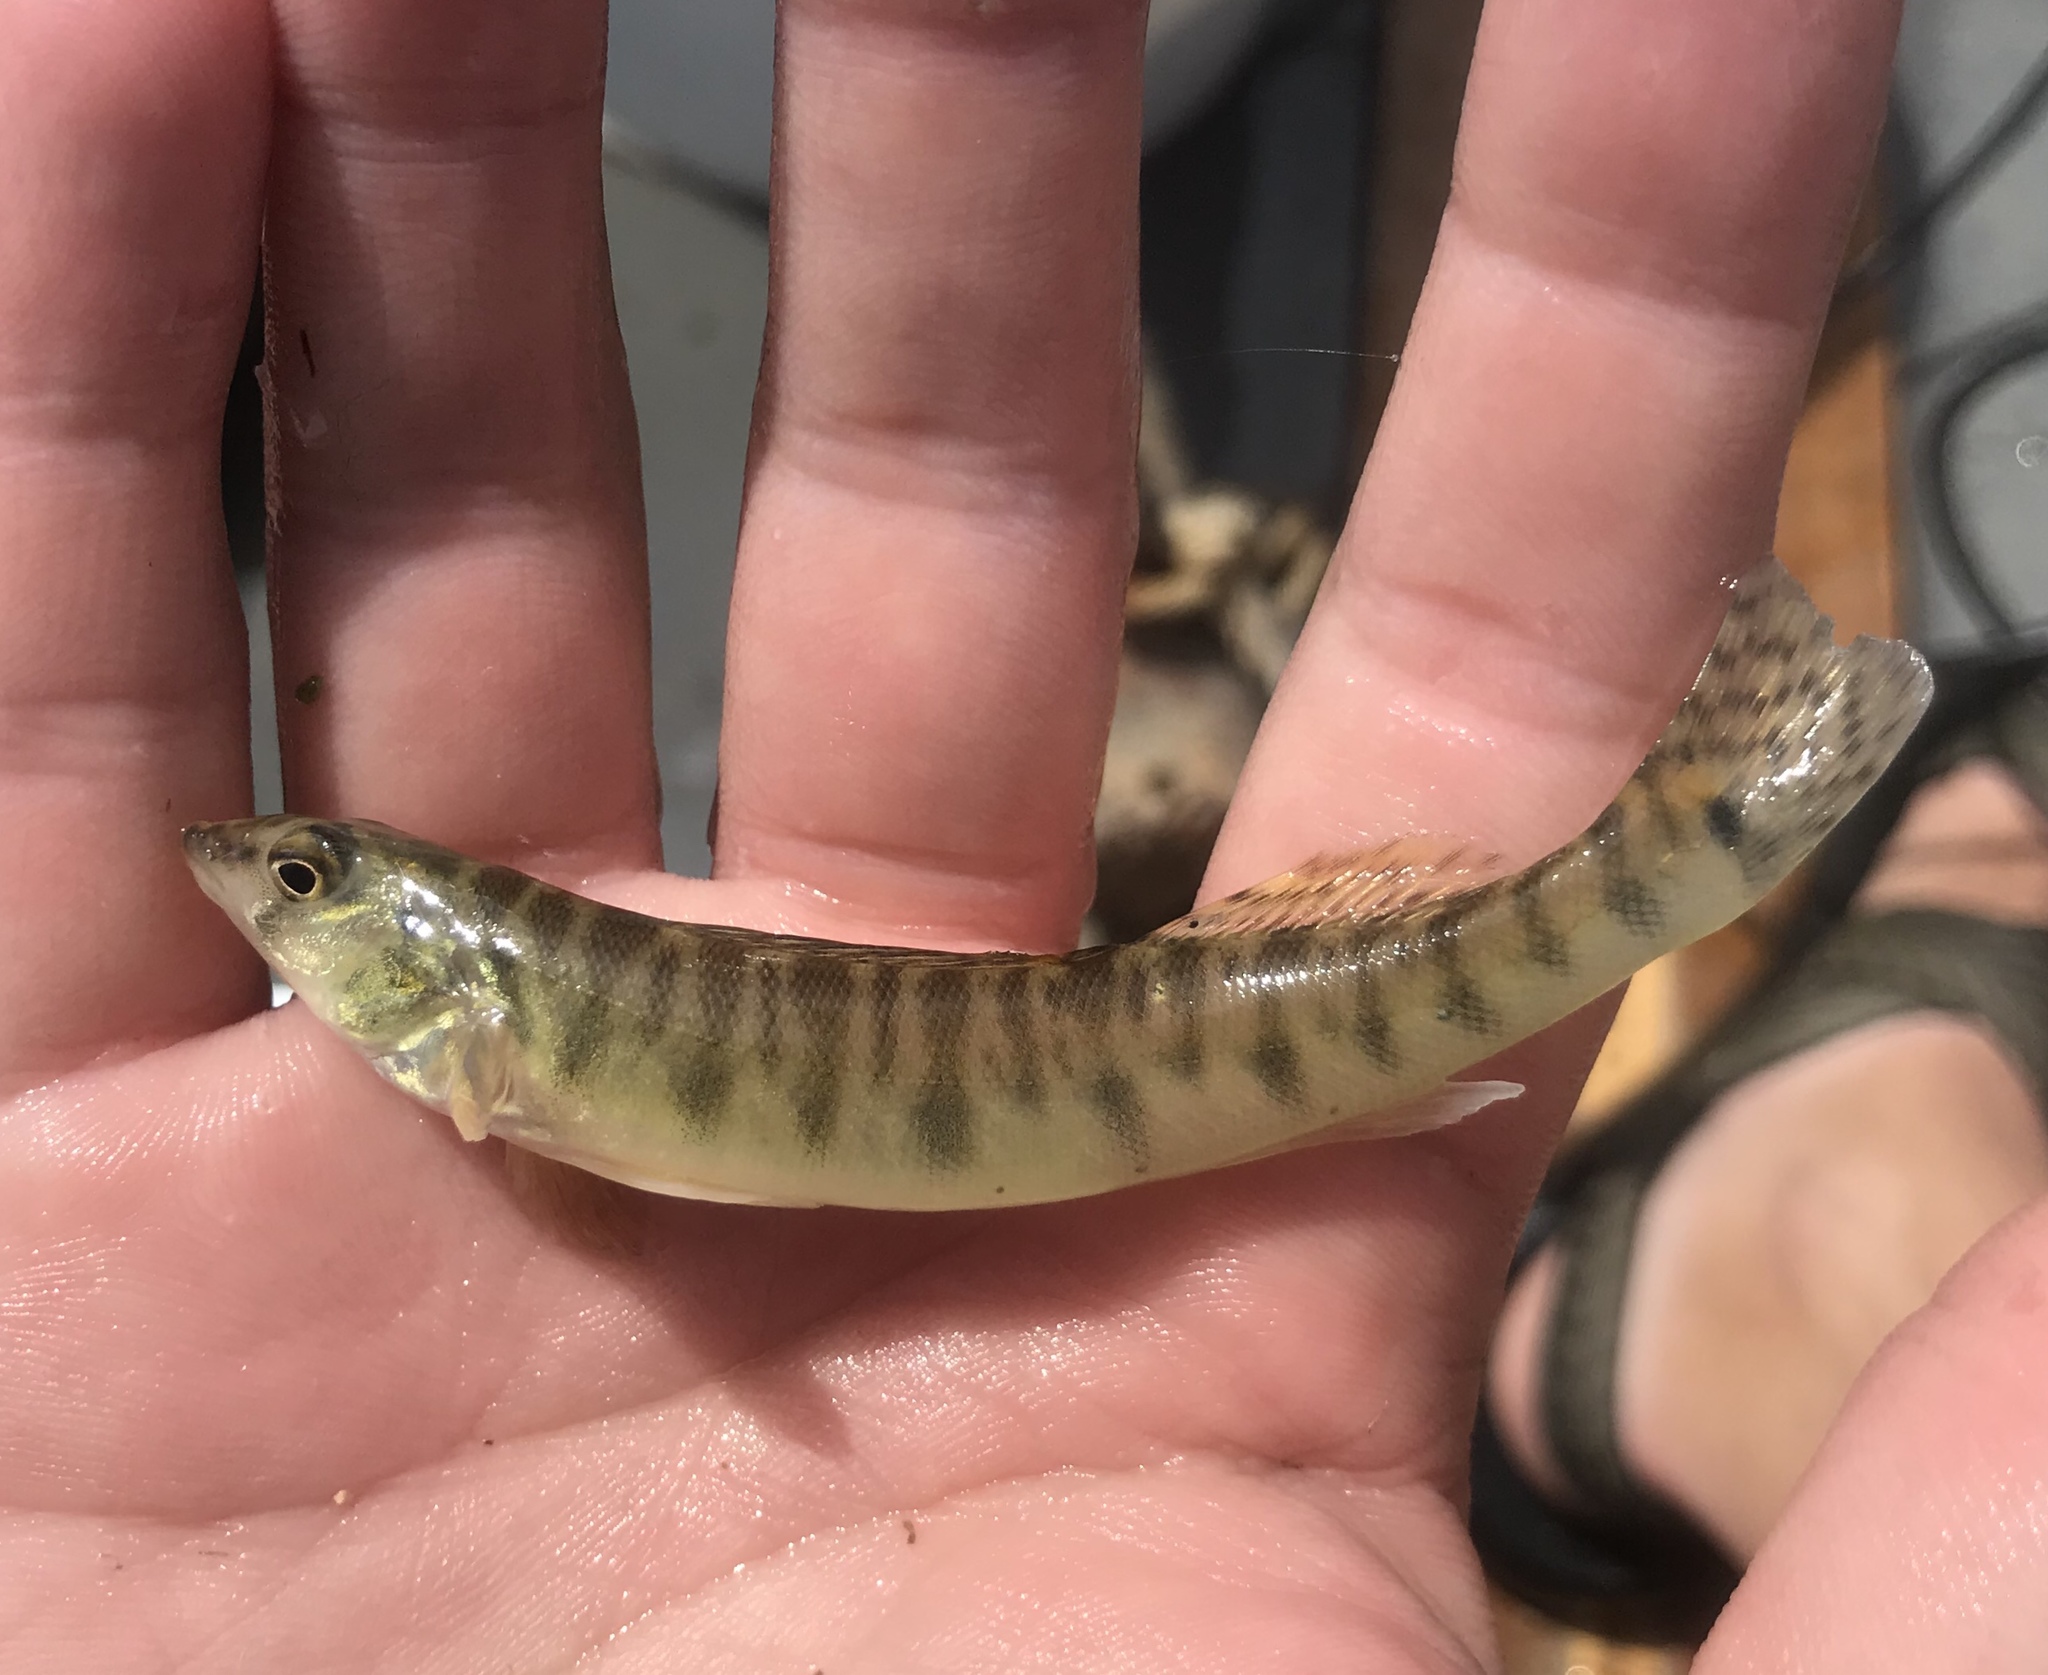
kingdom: Animalia
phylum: Chordata
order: Perciformes
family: Percidae
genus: Percina
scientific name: Percina carbonaria
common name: Texas logperch
